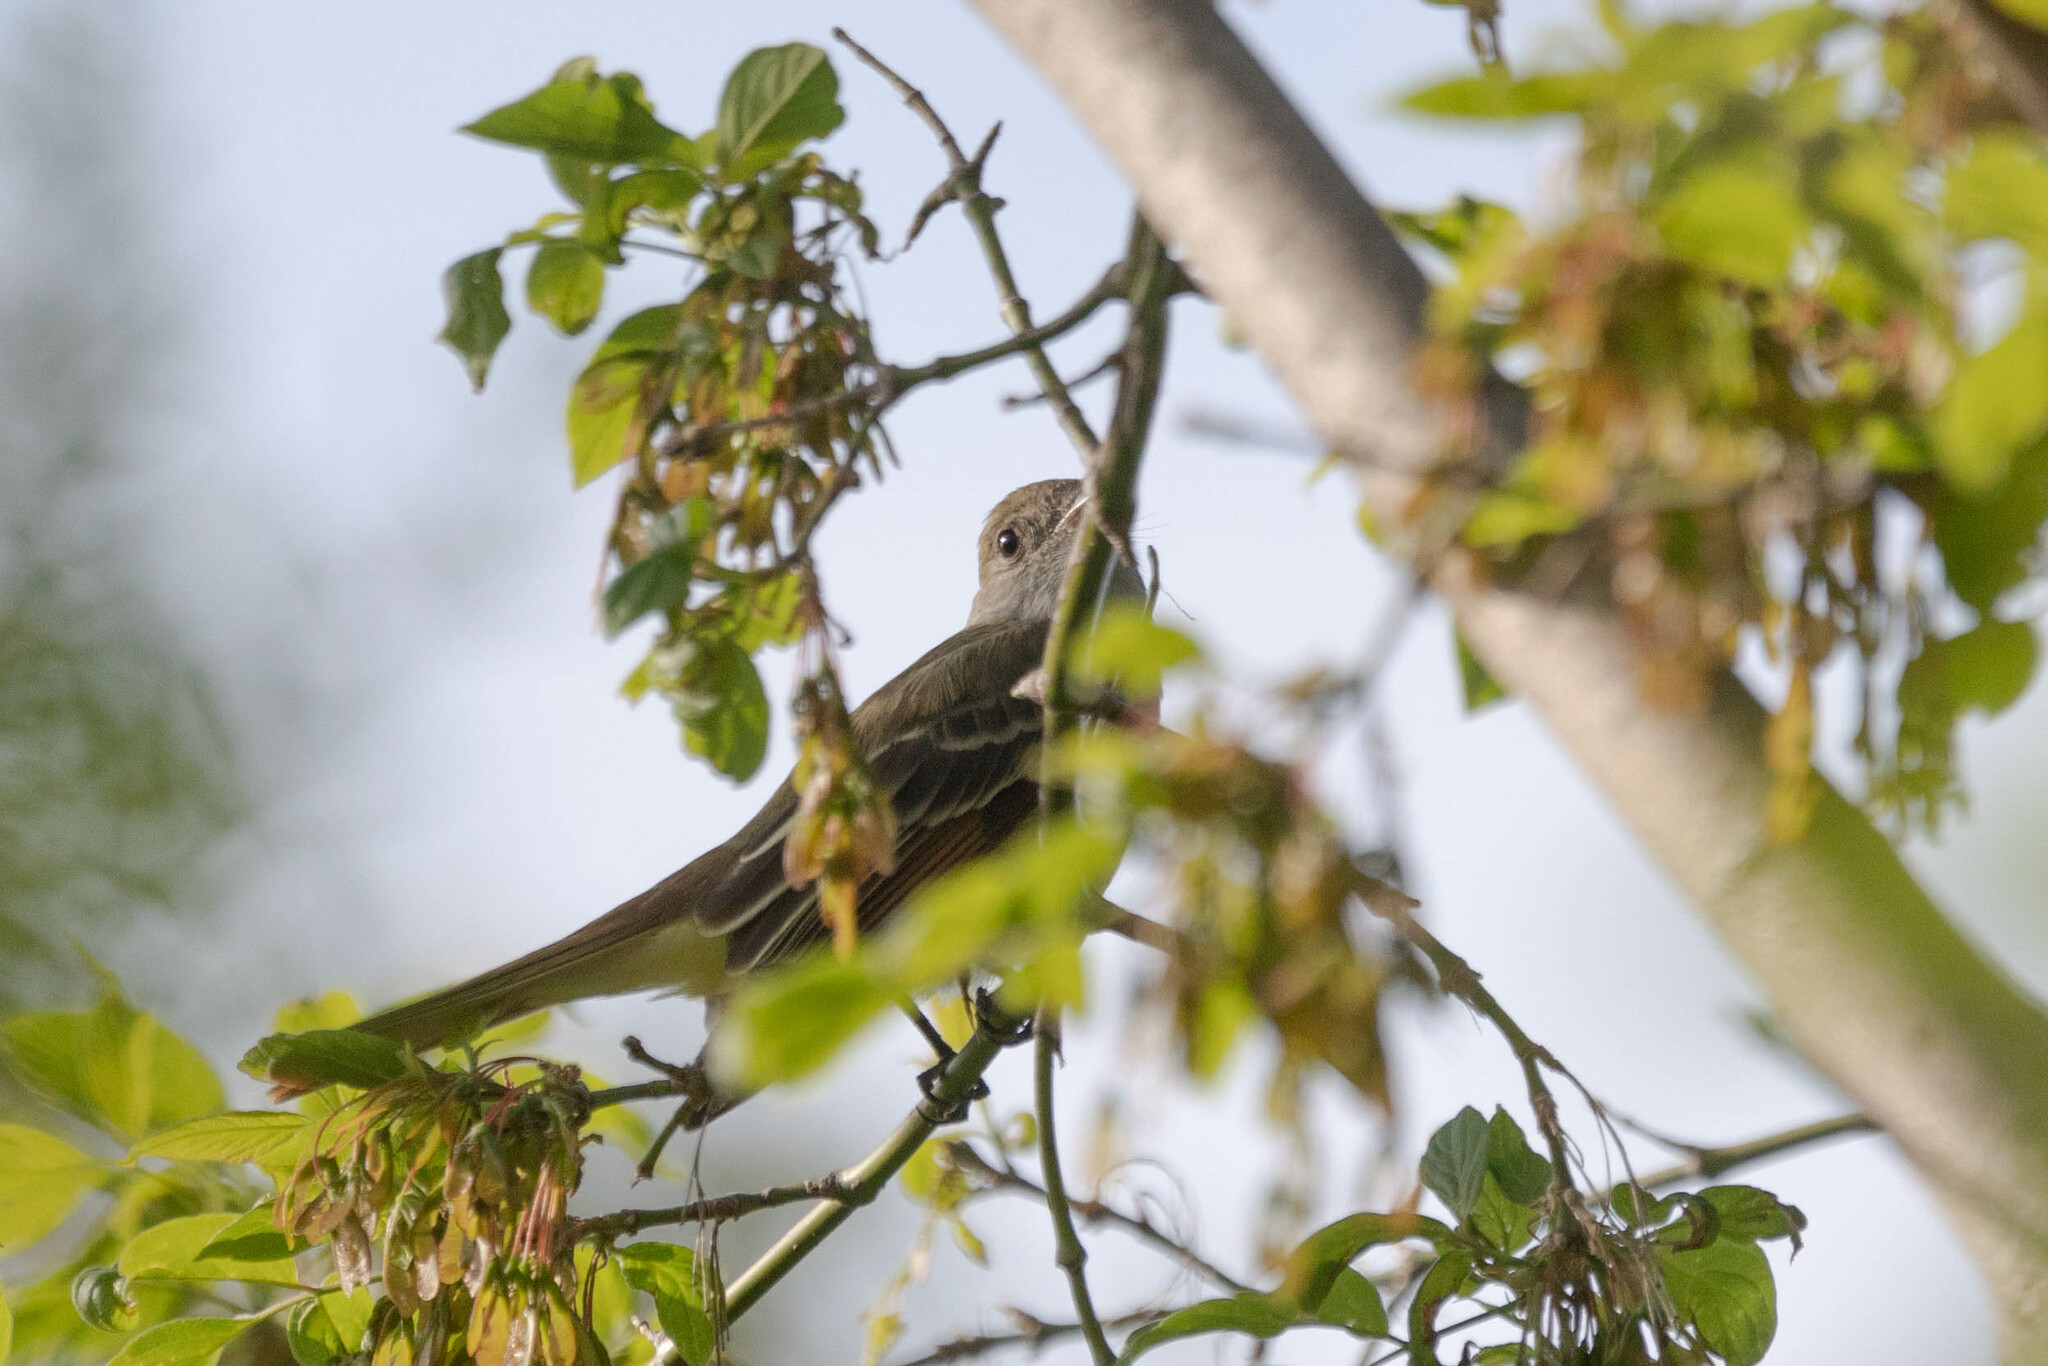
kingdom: Animalia
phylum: Chordata
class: Aves
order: Passeriformes
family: Tyrannidae
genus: Myiarchus
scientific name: Myiarchus crinitus
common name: Great crested flycatcher
